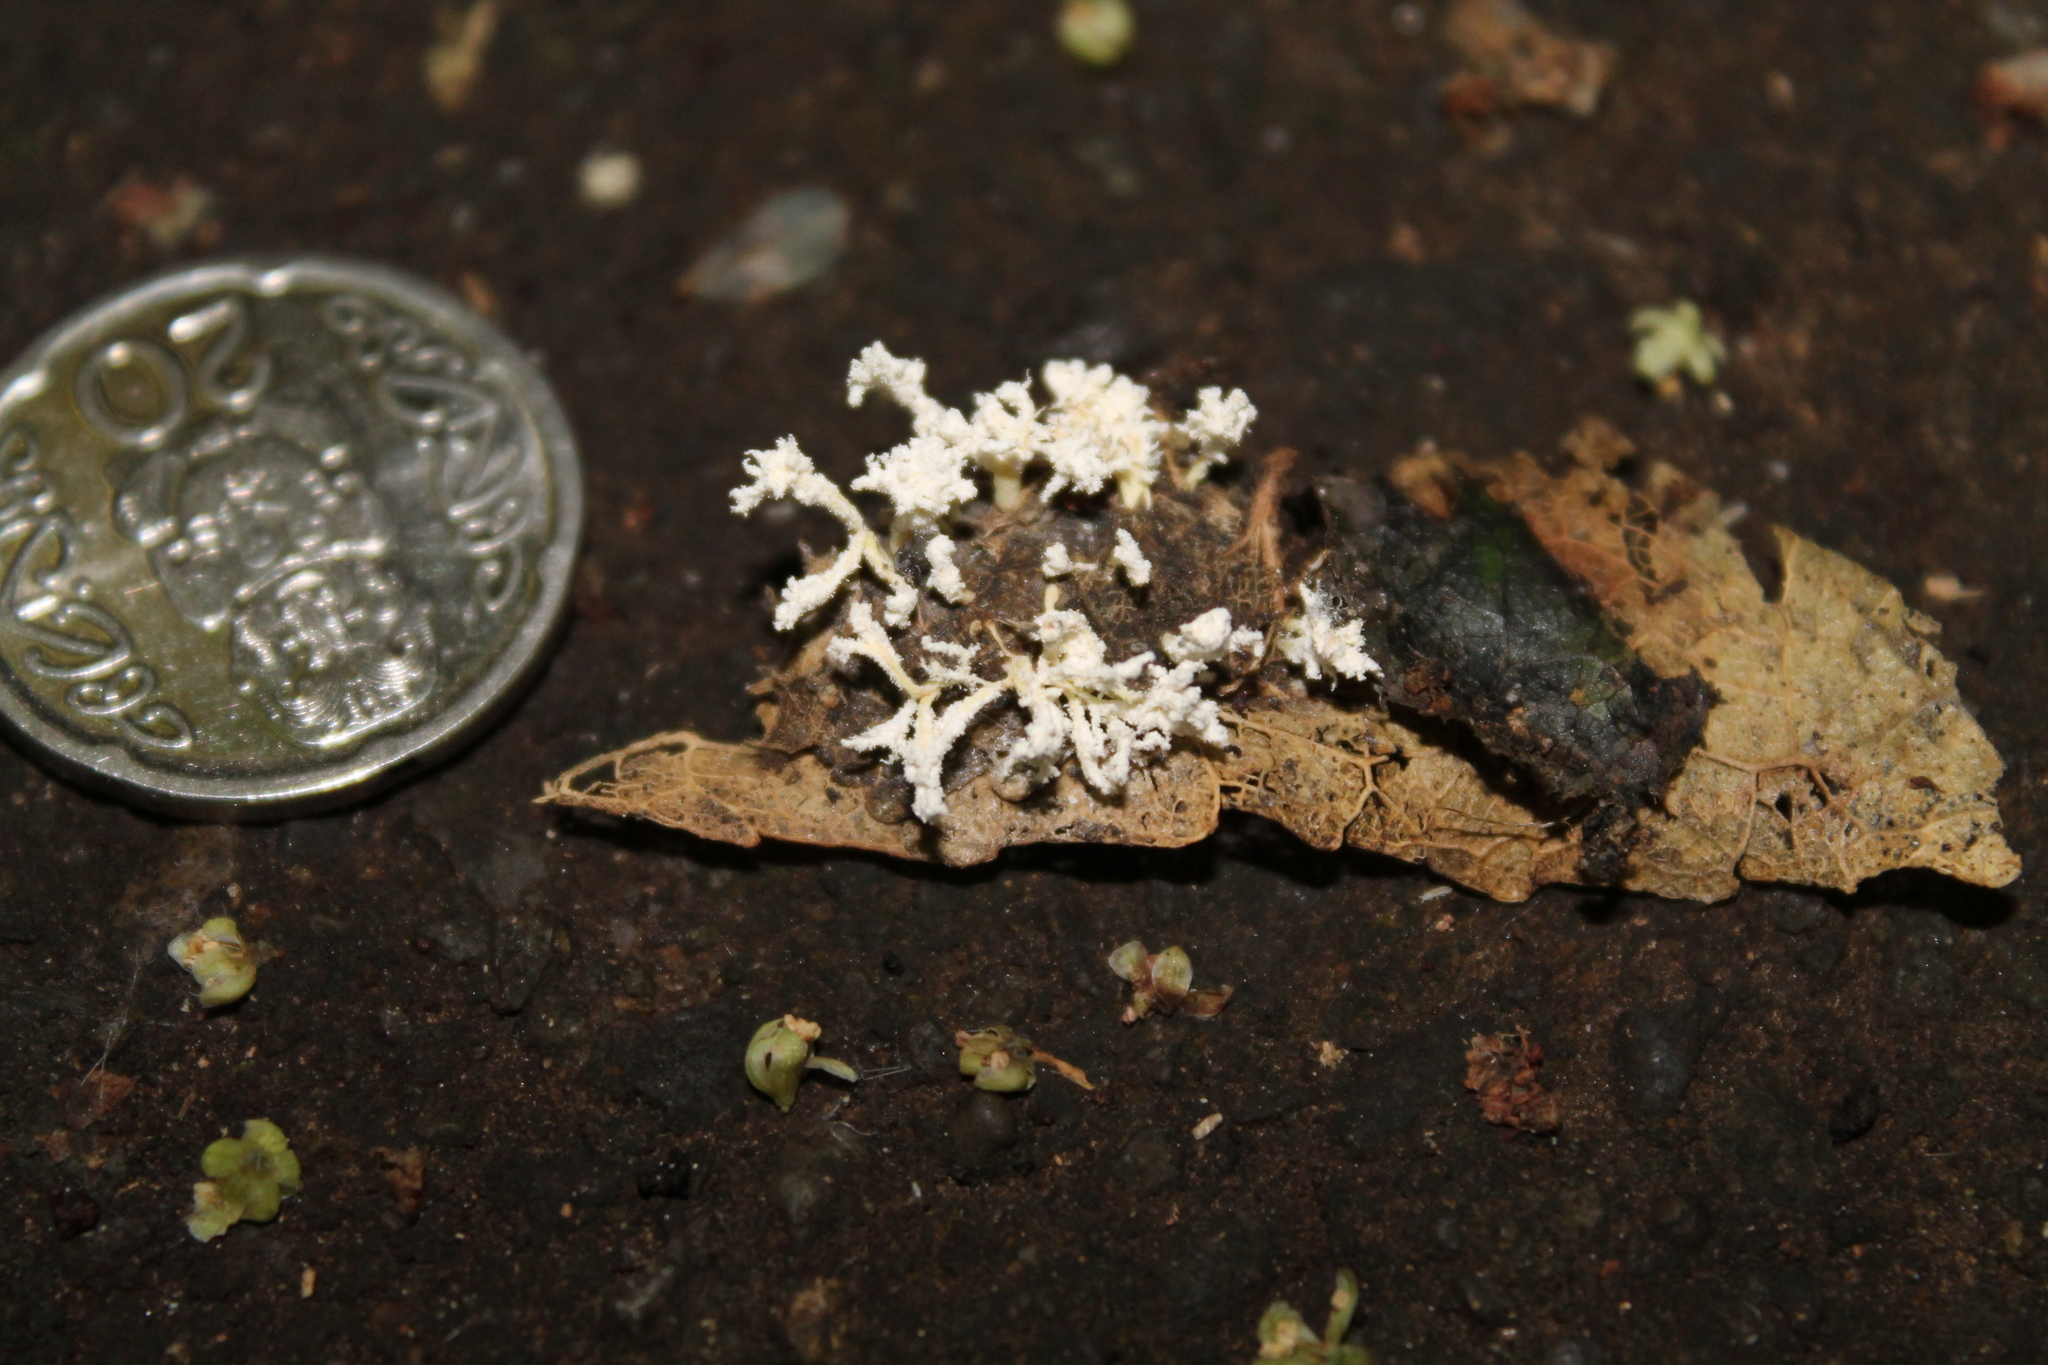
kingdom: Fungi
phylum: Ascomycota
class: Sordariomycetes
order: Hypocreales
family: Cordycipitaceae
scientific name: Cordycipitaceae
